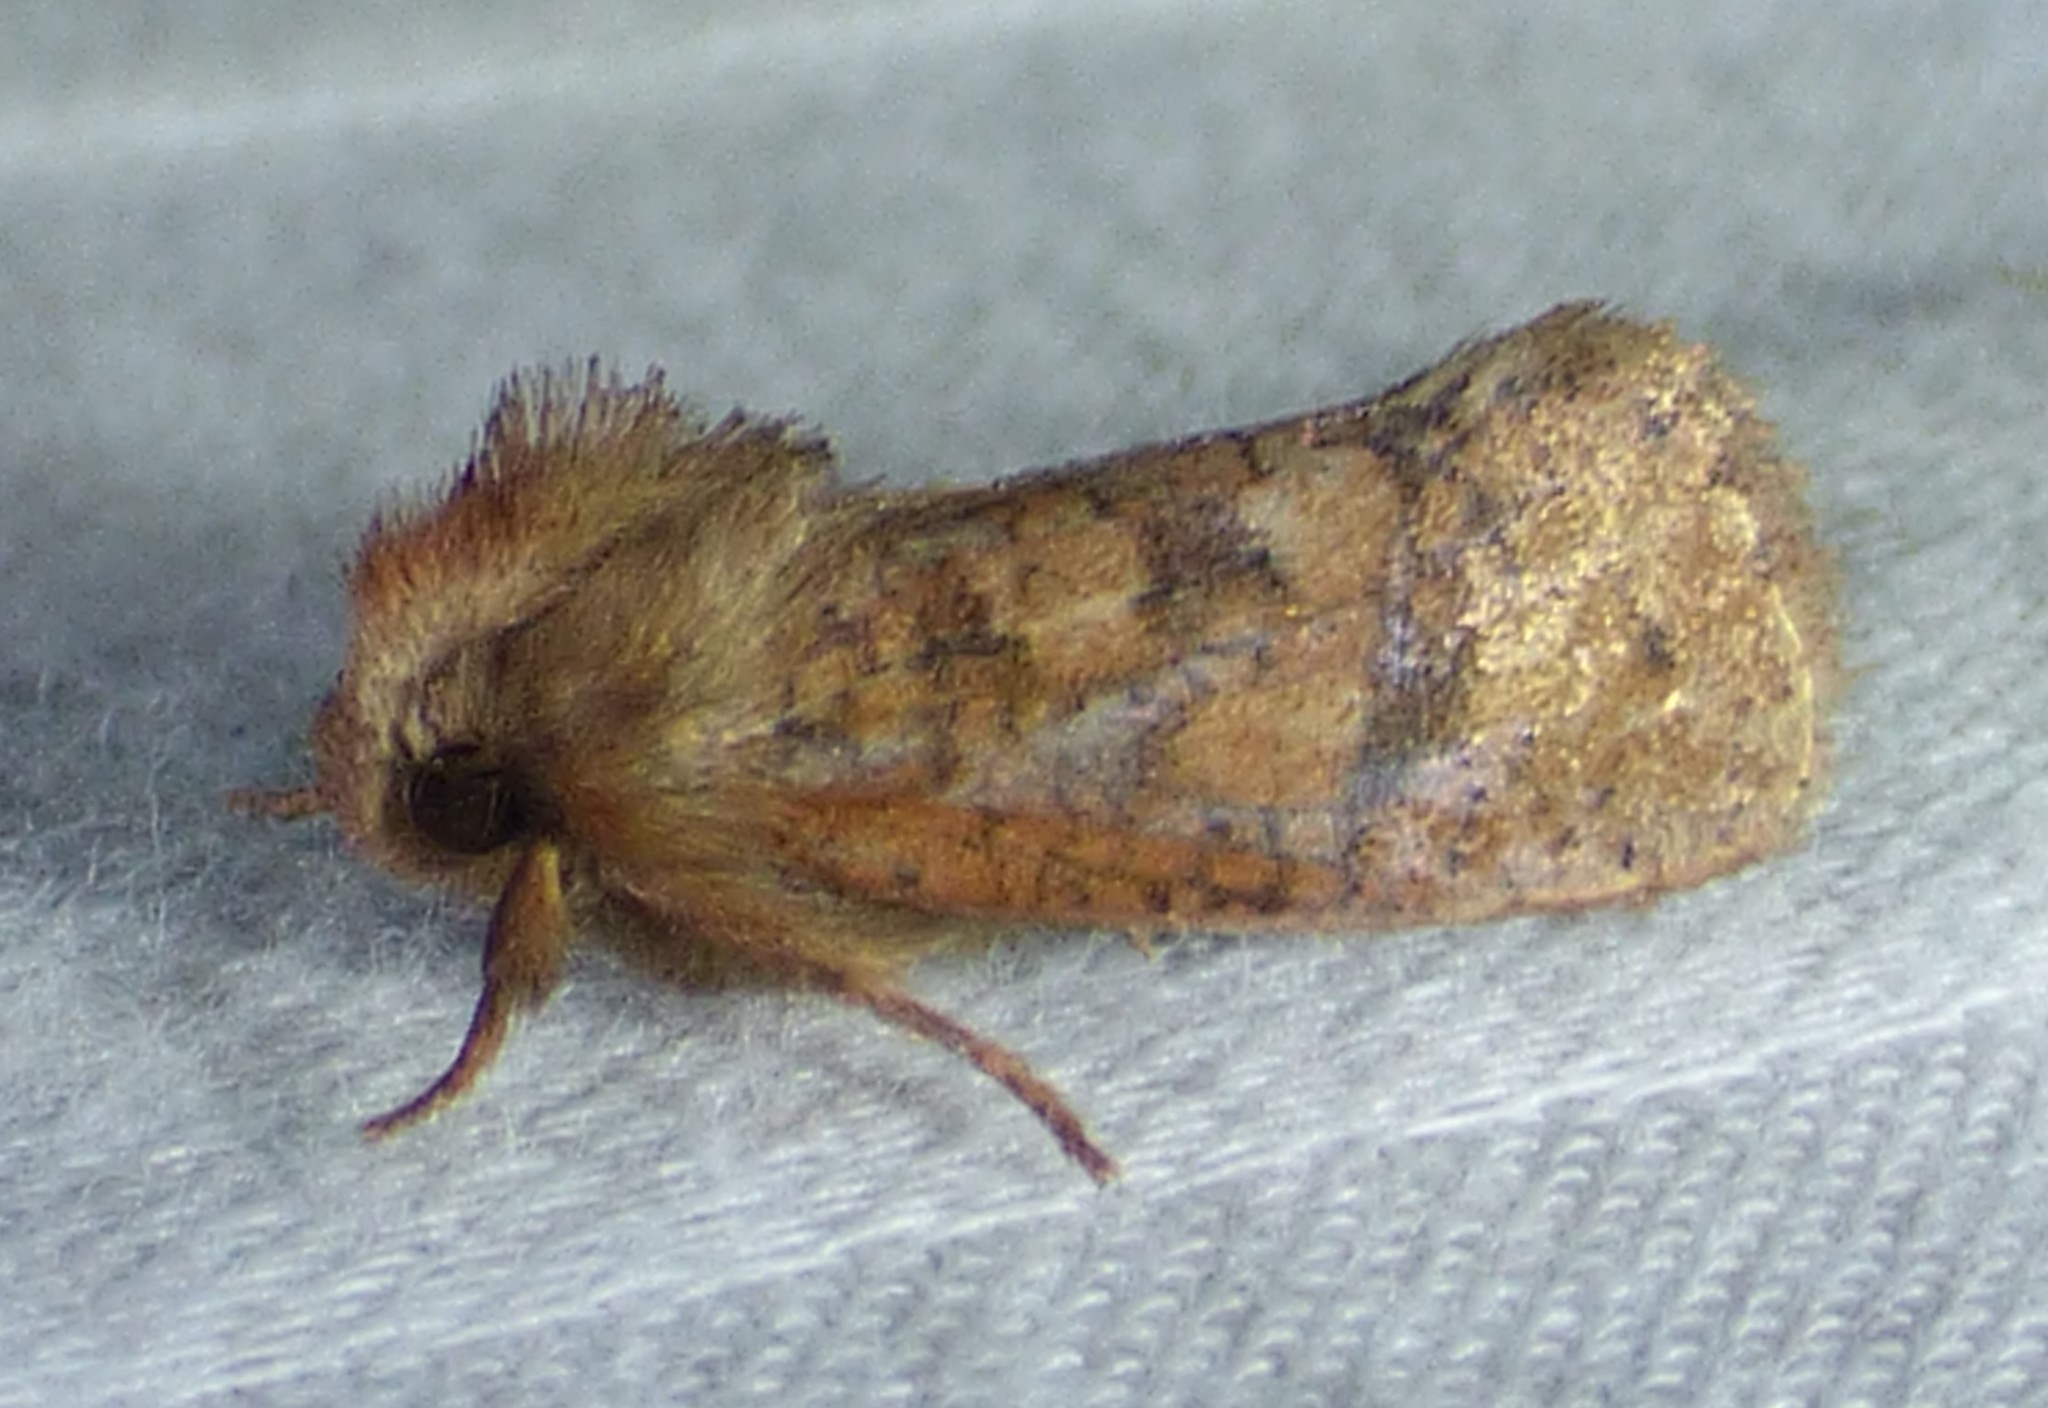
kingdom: Animalia
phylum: Arthropoda
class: Insecta
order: Lepidoptera
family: Tineidae
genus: Acrolophus
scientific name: Acrolophus plumifrontella
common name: Eastern grass tubeworm moth
